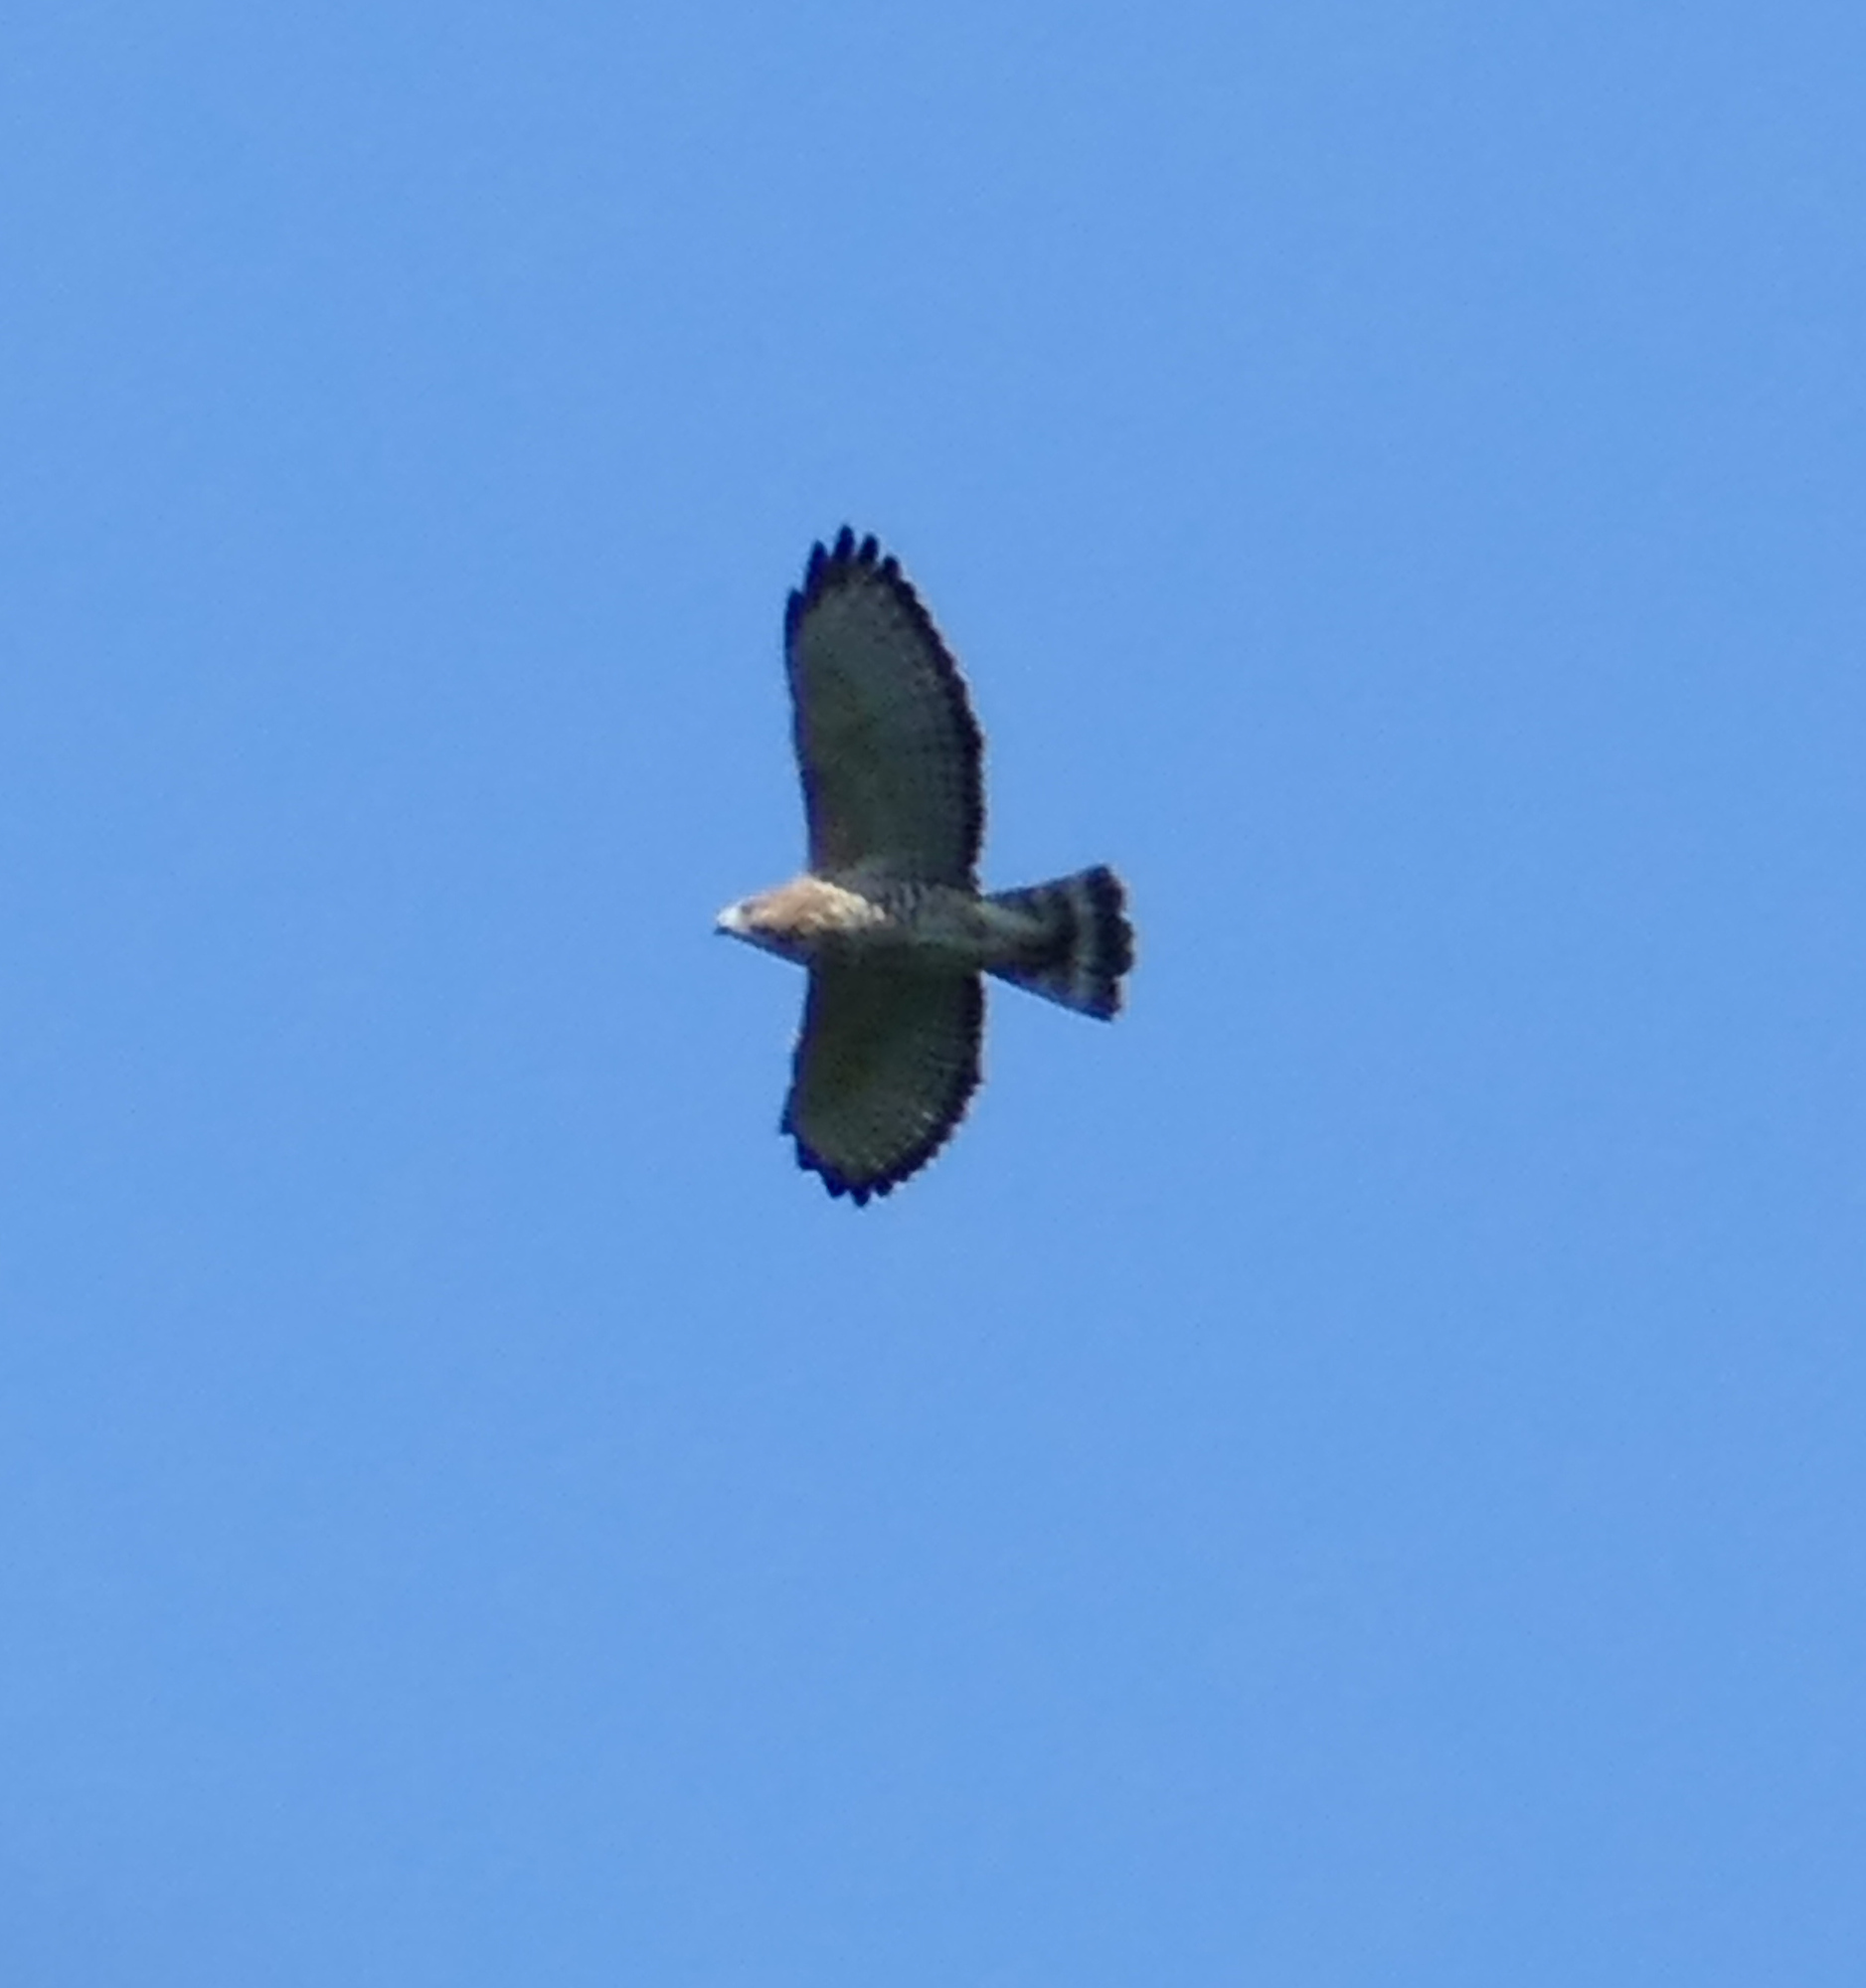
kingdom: Animalia
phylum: Chordata
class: Aves
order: Accipitriformes
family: Accipitridae
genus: Buteo
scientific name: Buteo platypterus
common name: Broad-winged hawk
